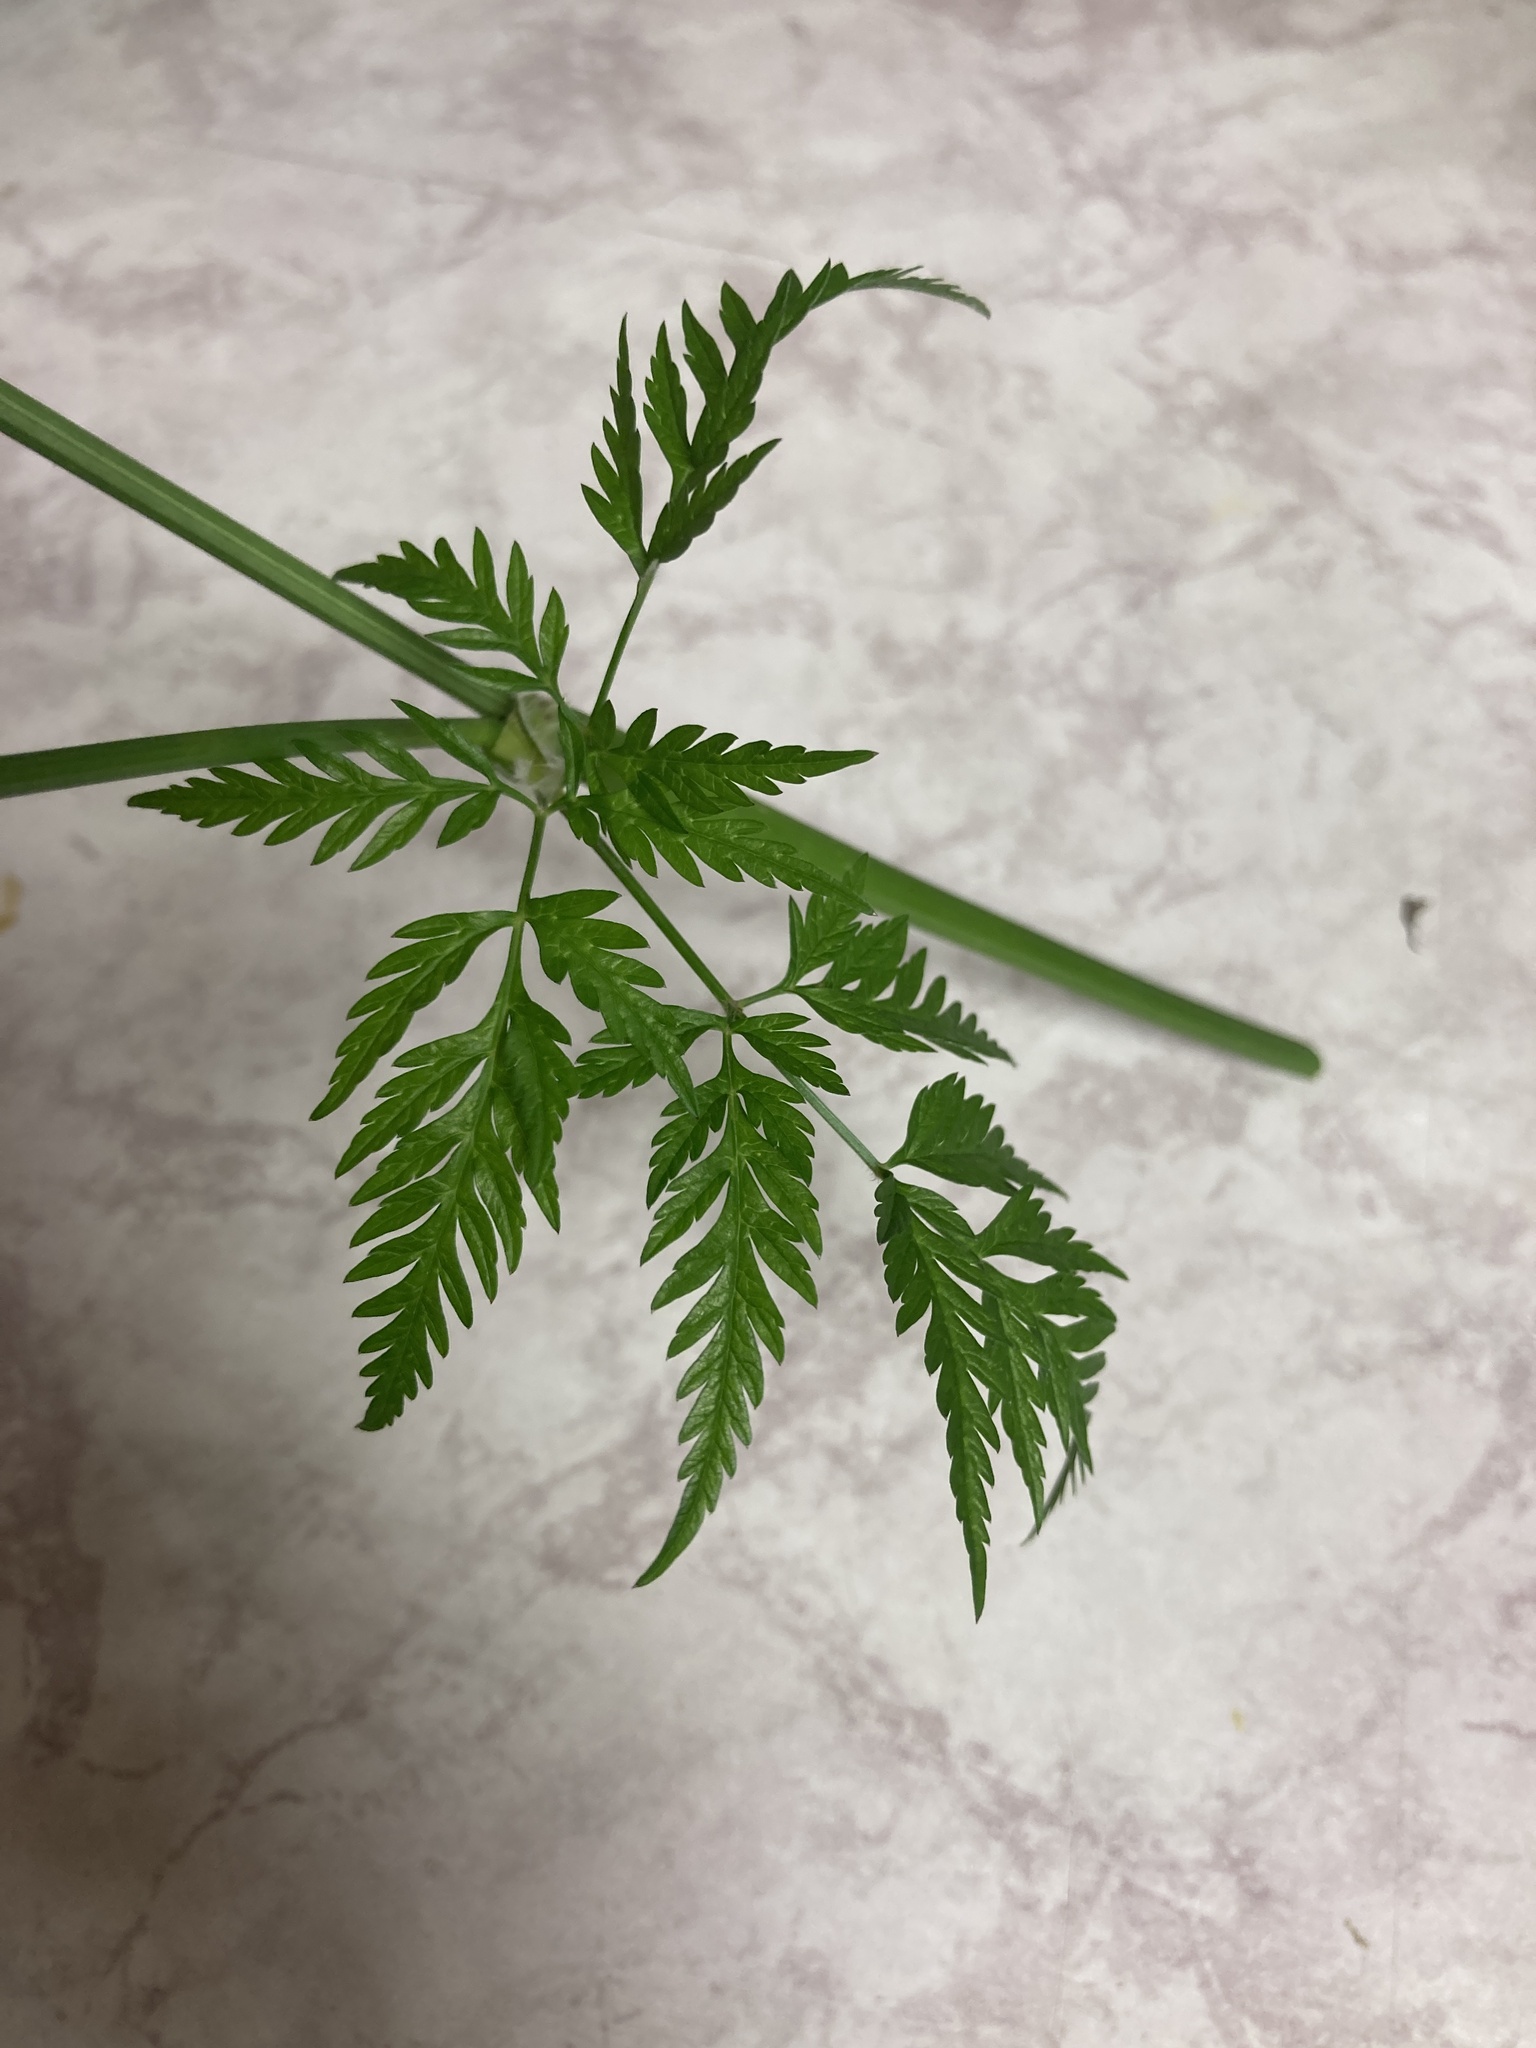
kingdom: Plantae
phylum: Tracheophyta
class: Magnoliopsida
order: Apiales
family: Apiaceae
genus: Anthriscus
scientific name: Anthriscus sylvestris
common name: Cow parsley
